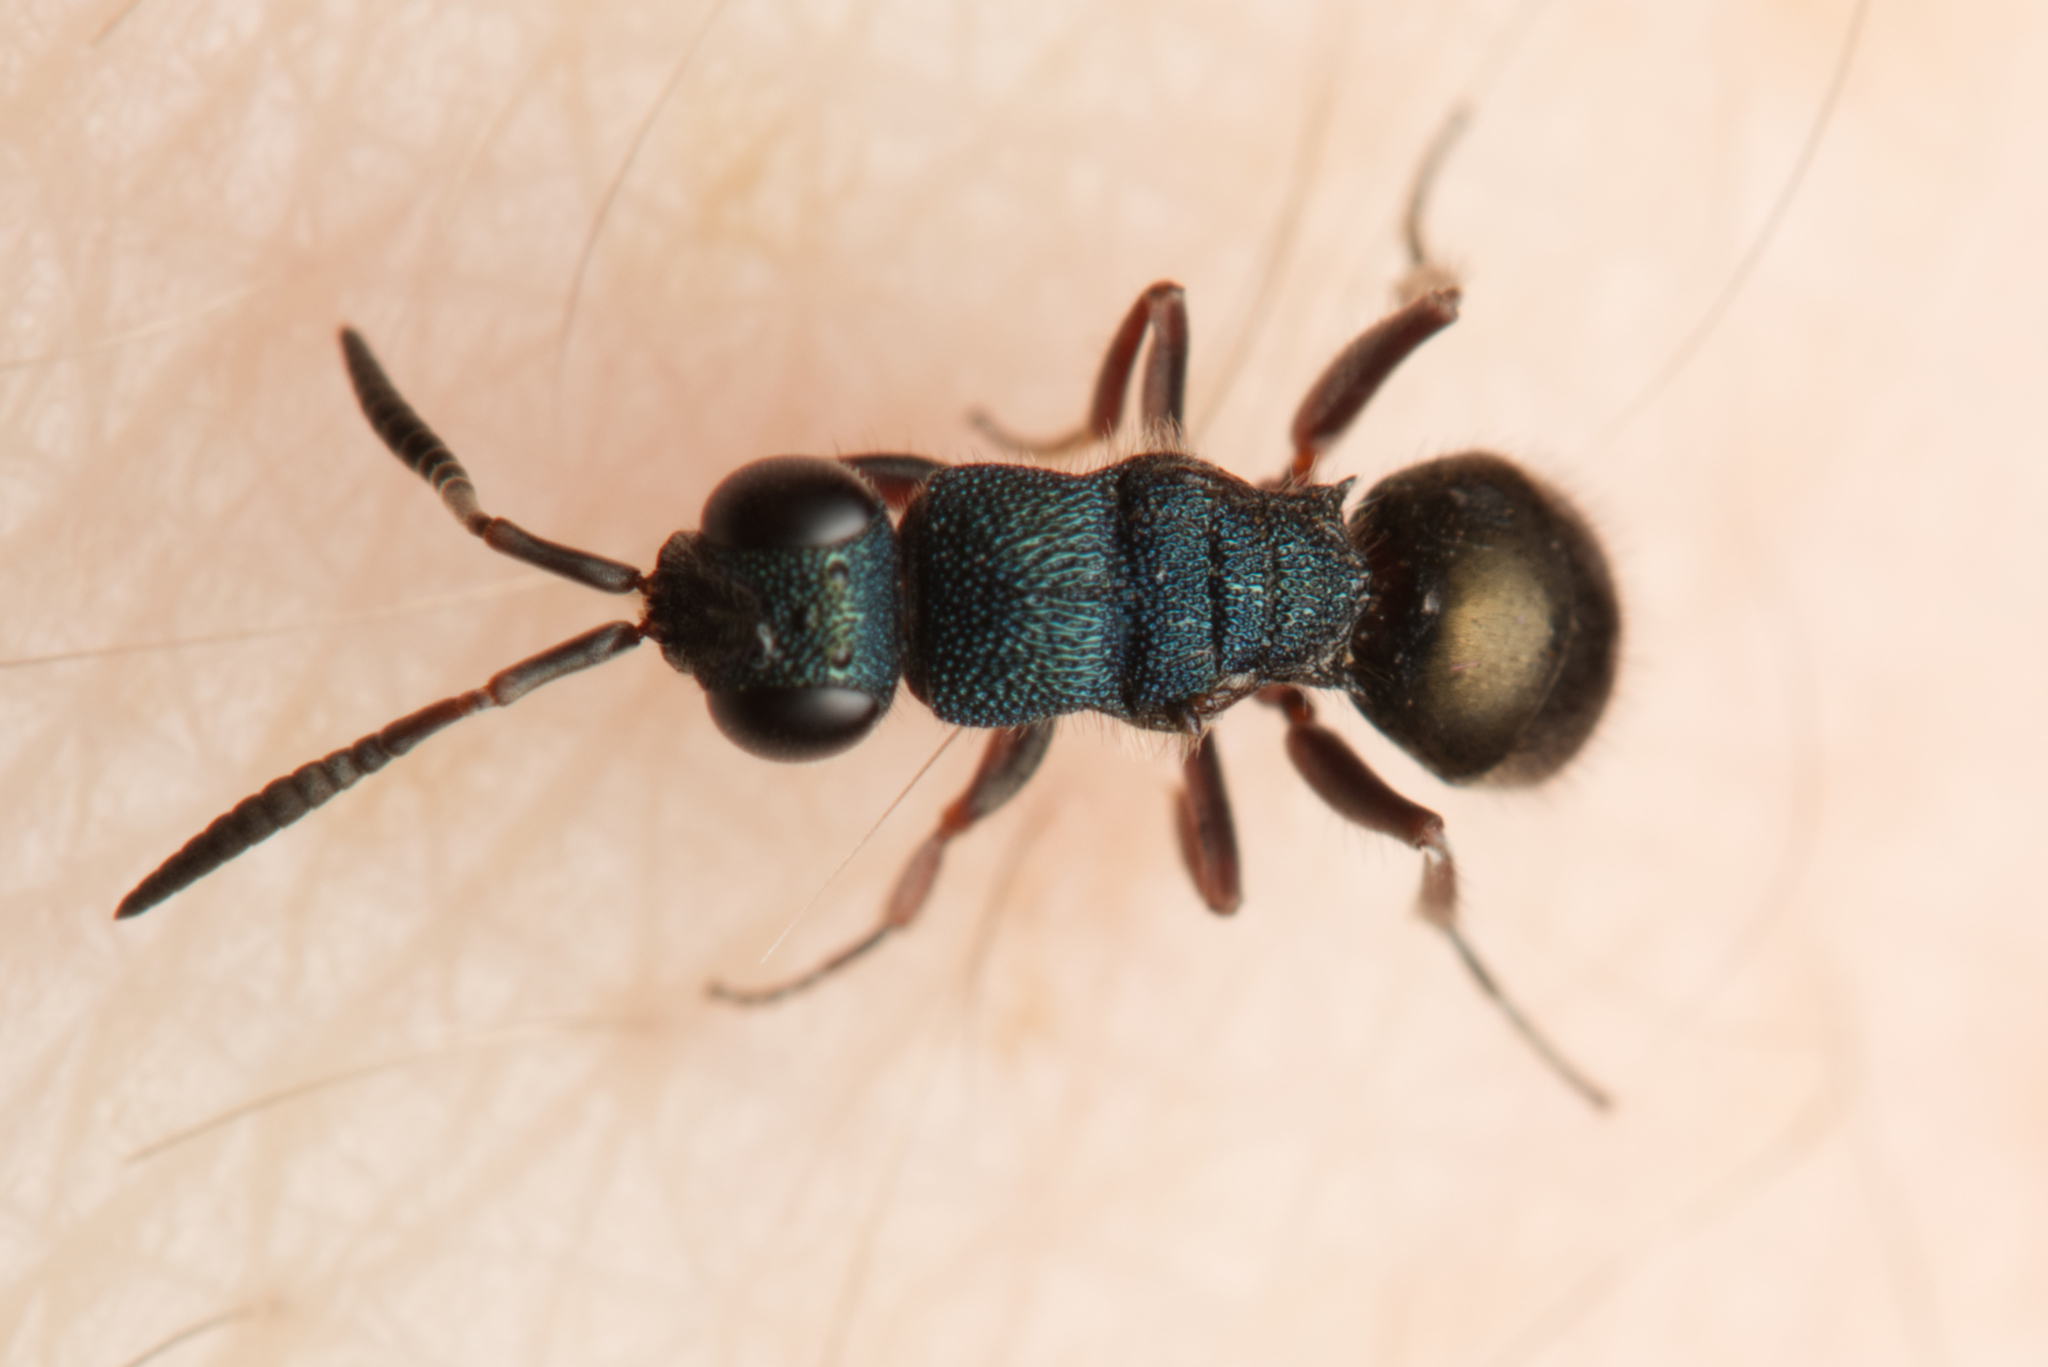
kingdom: Animalia
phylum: Arthropoda
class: Insecta
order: Hymenoptera
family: Chrysididae
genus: Myrmecomimesis
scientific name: Myrmecomimesis
